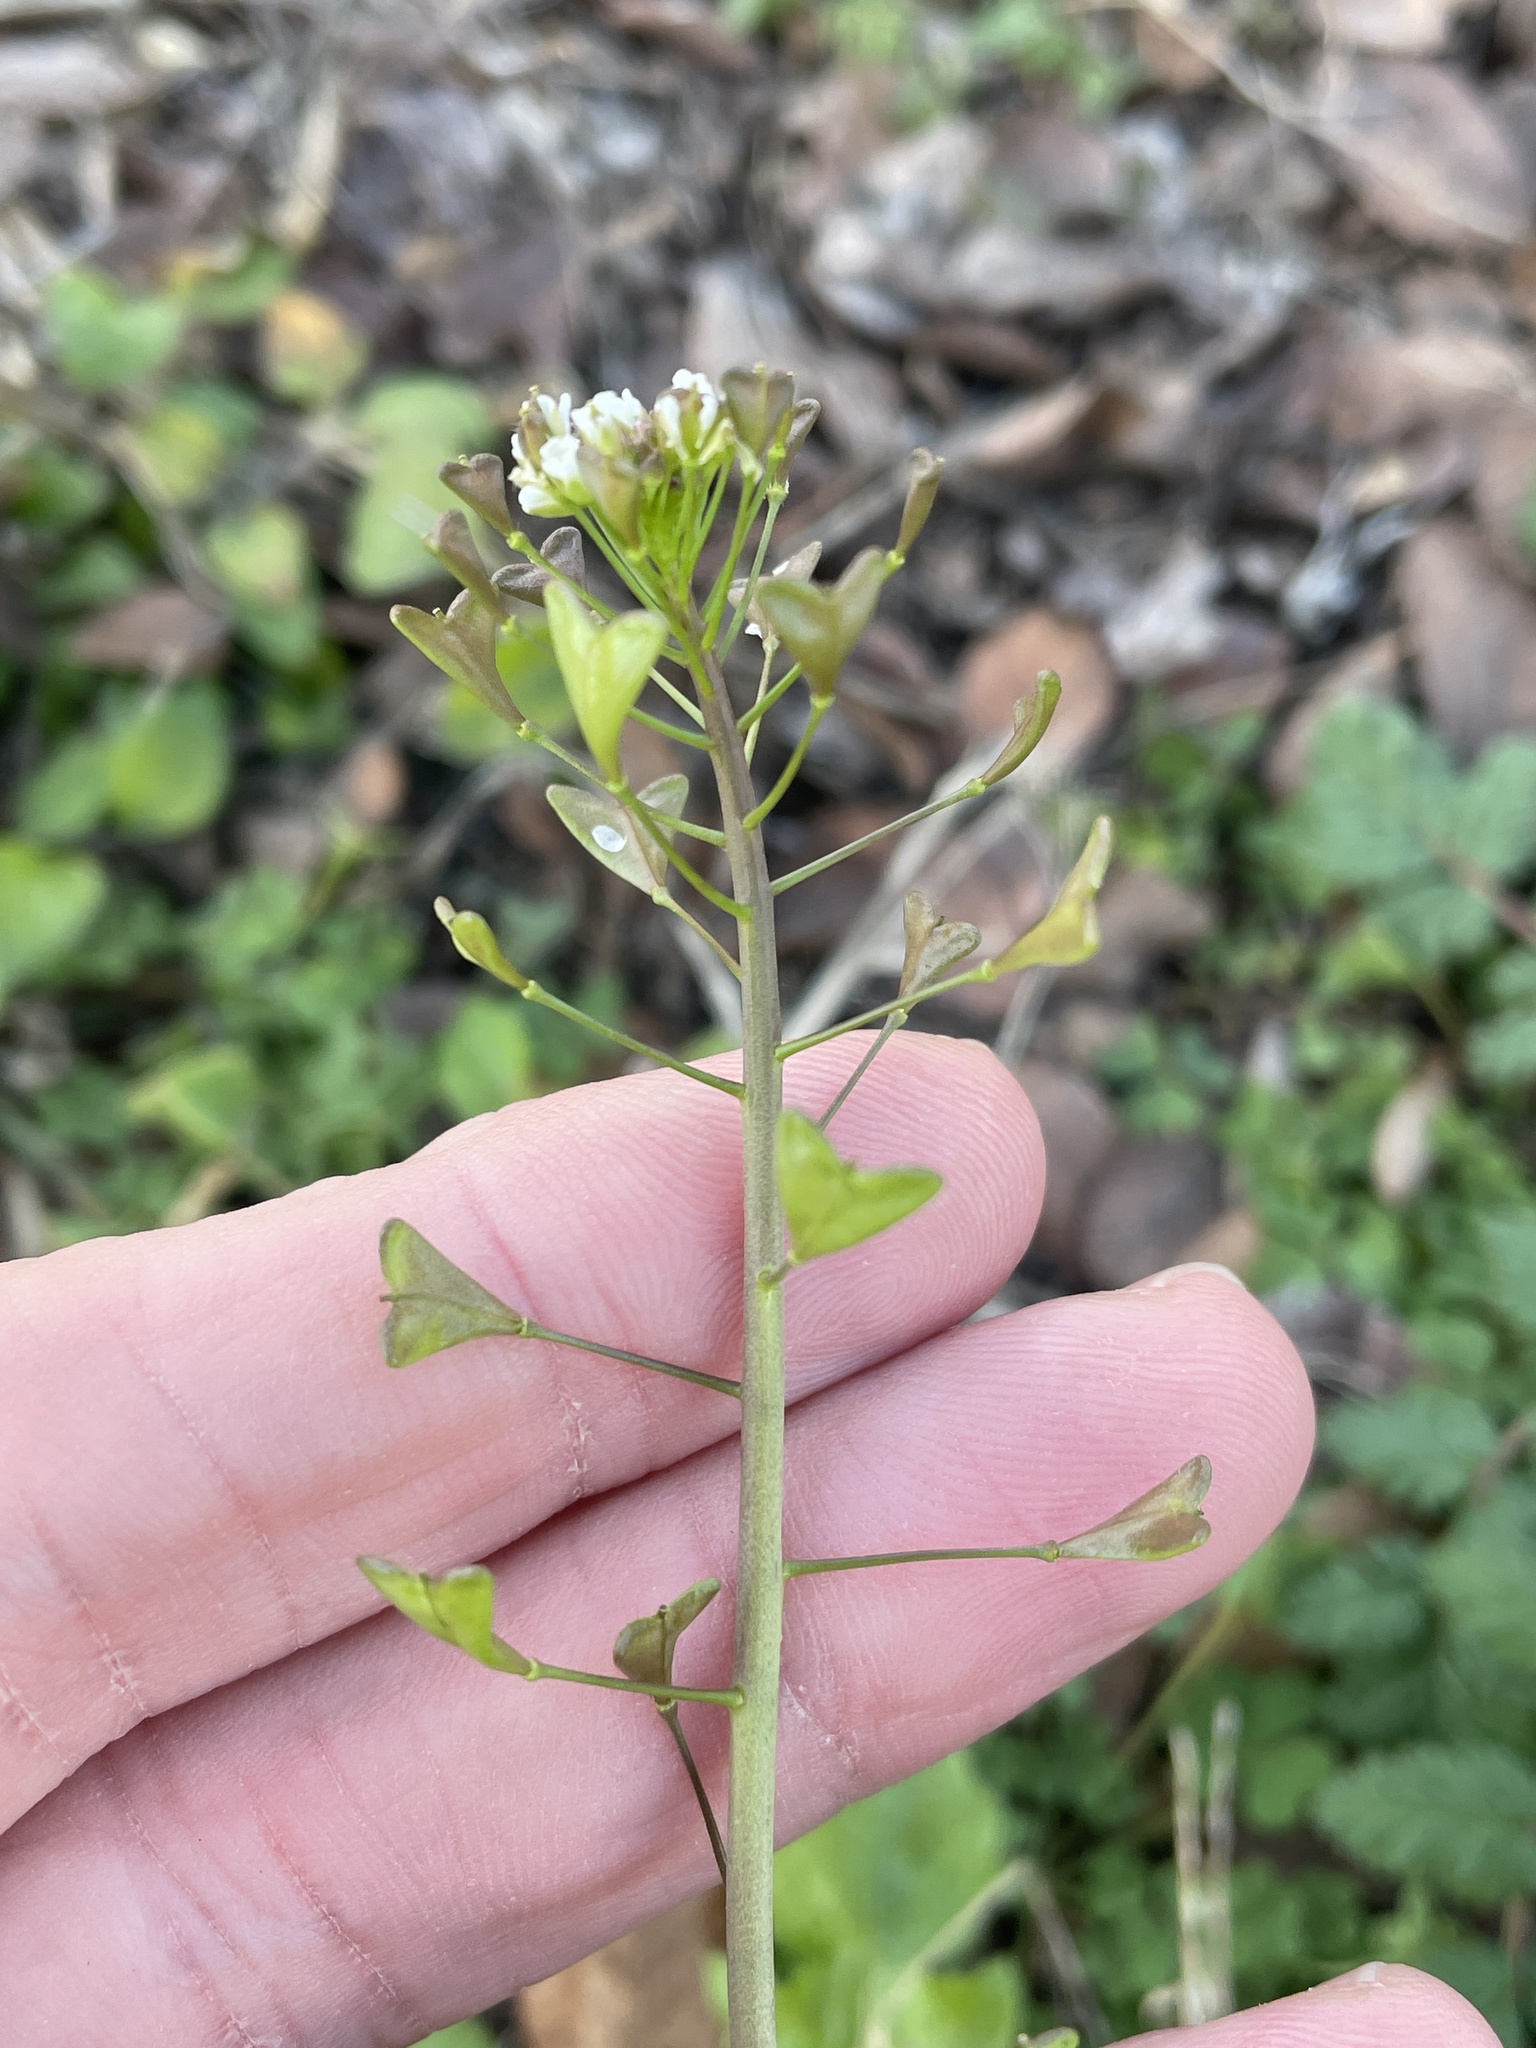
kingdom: Plantae
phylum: Tracheophyta
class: Magnoliopsida
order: Brassicales
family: Brassicaceae
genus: Capsella
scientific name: Capsella bursa-pastoris
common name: Shepherd's purse
